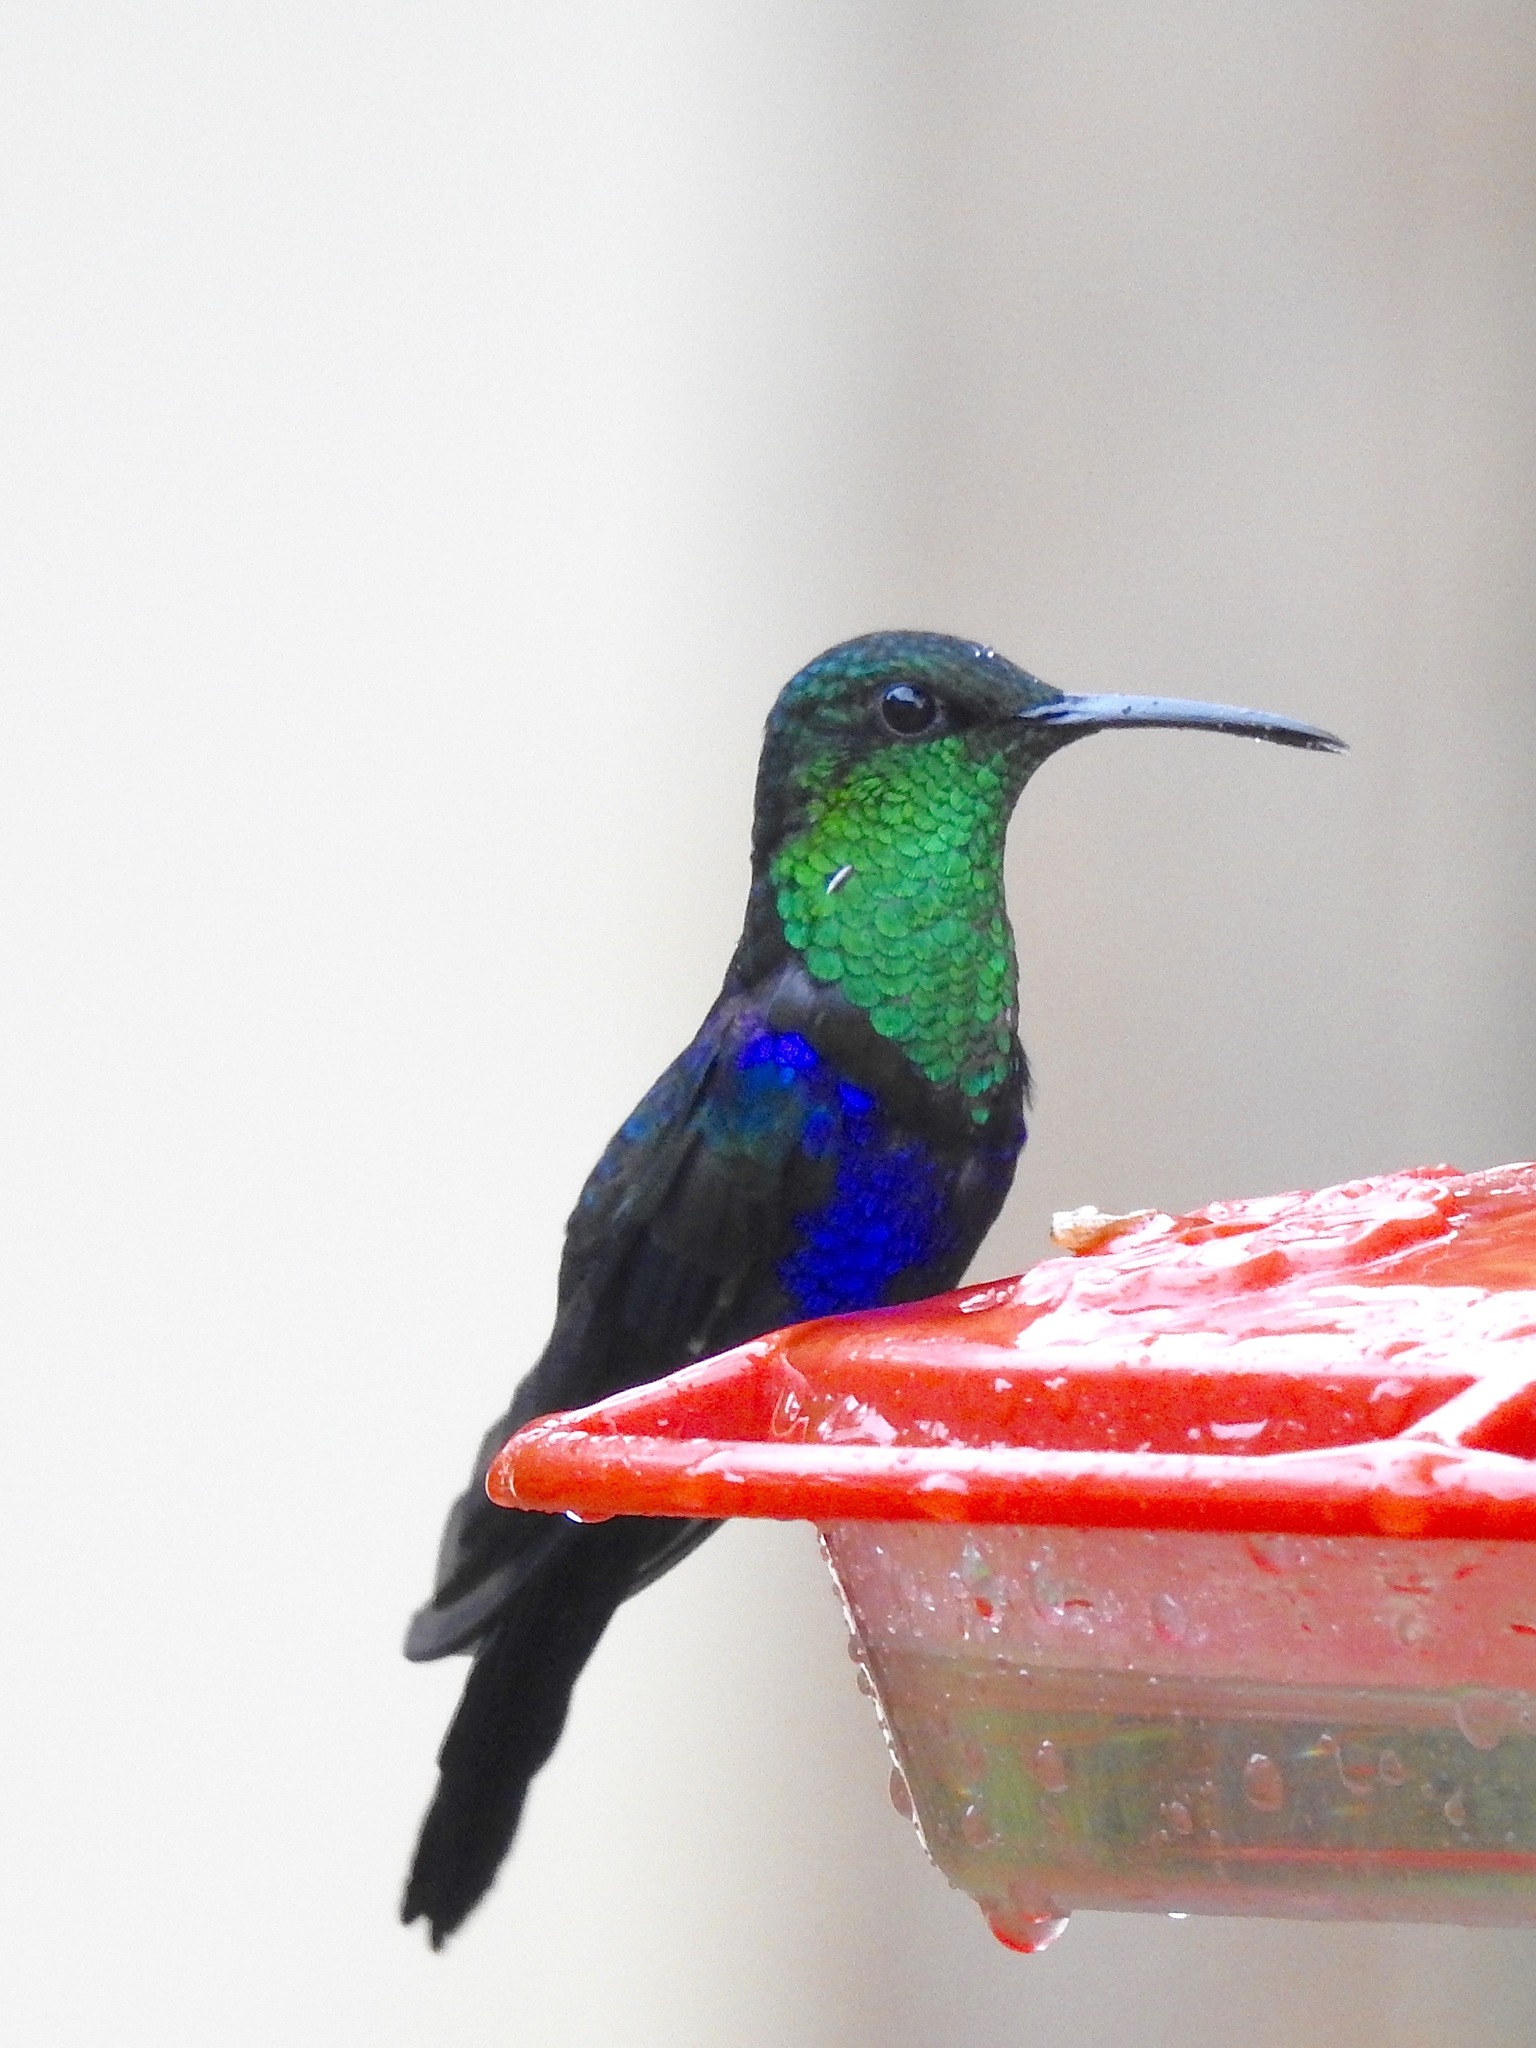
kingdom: Animalia
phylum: Chordata
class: Aves
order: Apodiformes
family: Trochilidae
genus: Thalurania
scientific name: Thalurania furcata
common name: Fork-tailed woodnymph
